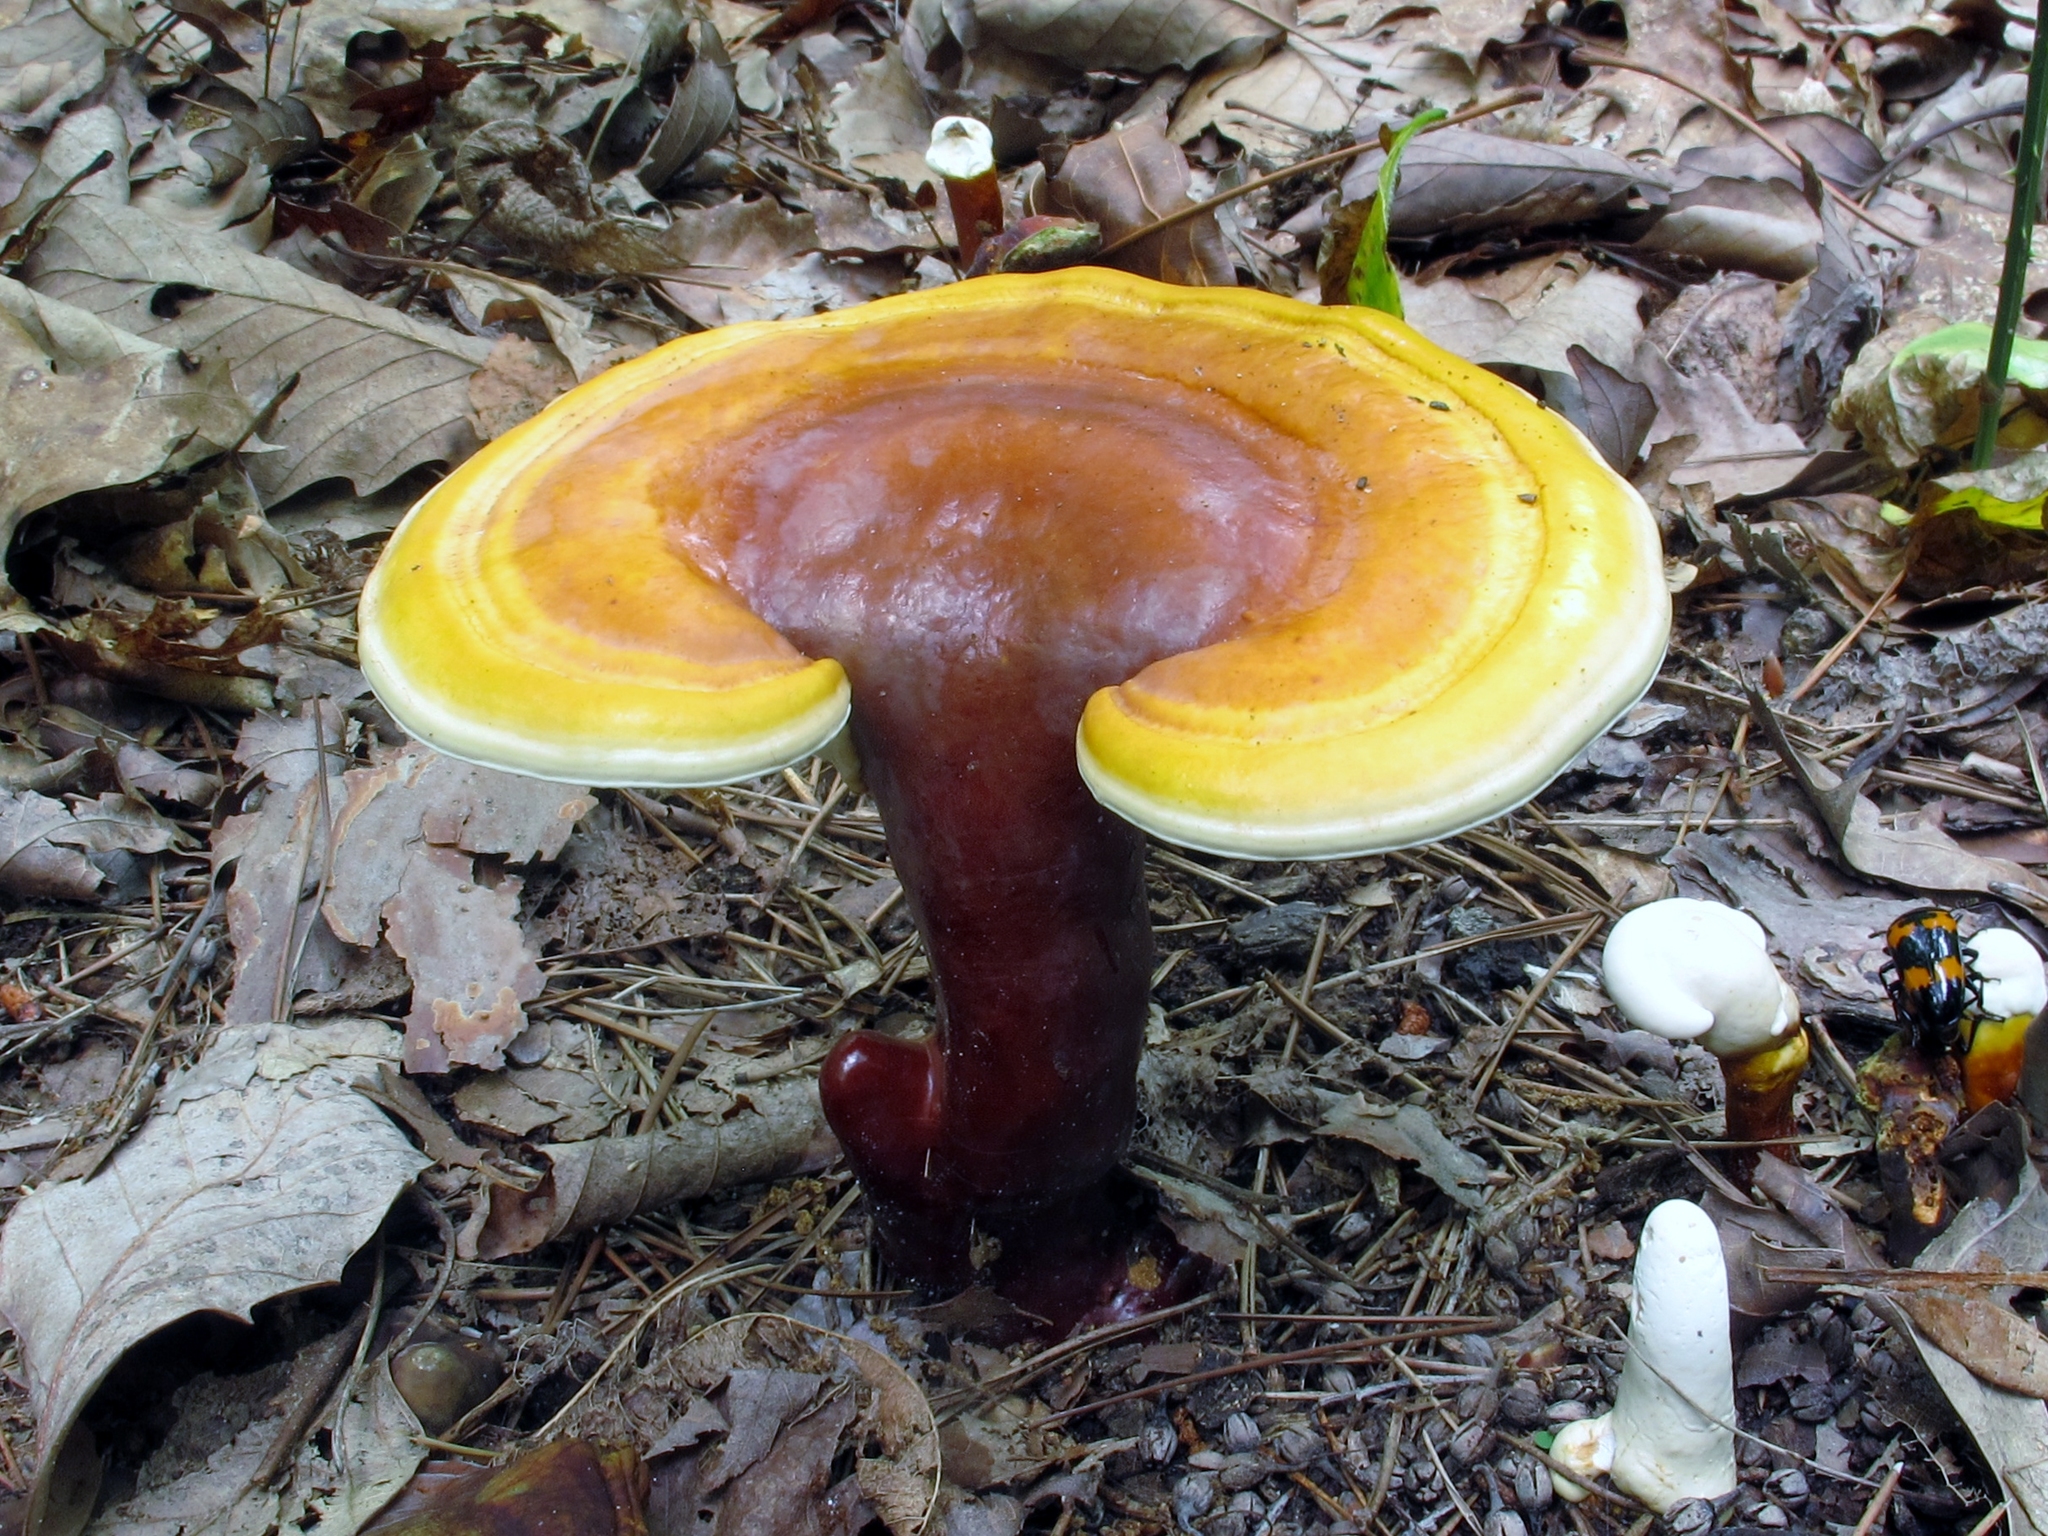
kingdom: Fungi
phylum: Basidiomycota
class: Agaricomycetes
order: Polyporales
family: Polyporaceae
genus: Ganoderma
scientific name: Ganoderma curtisii
